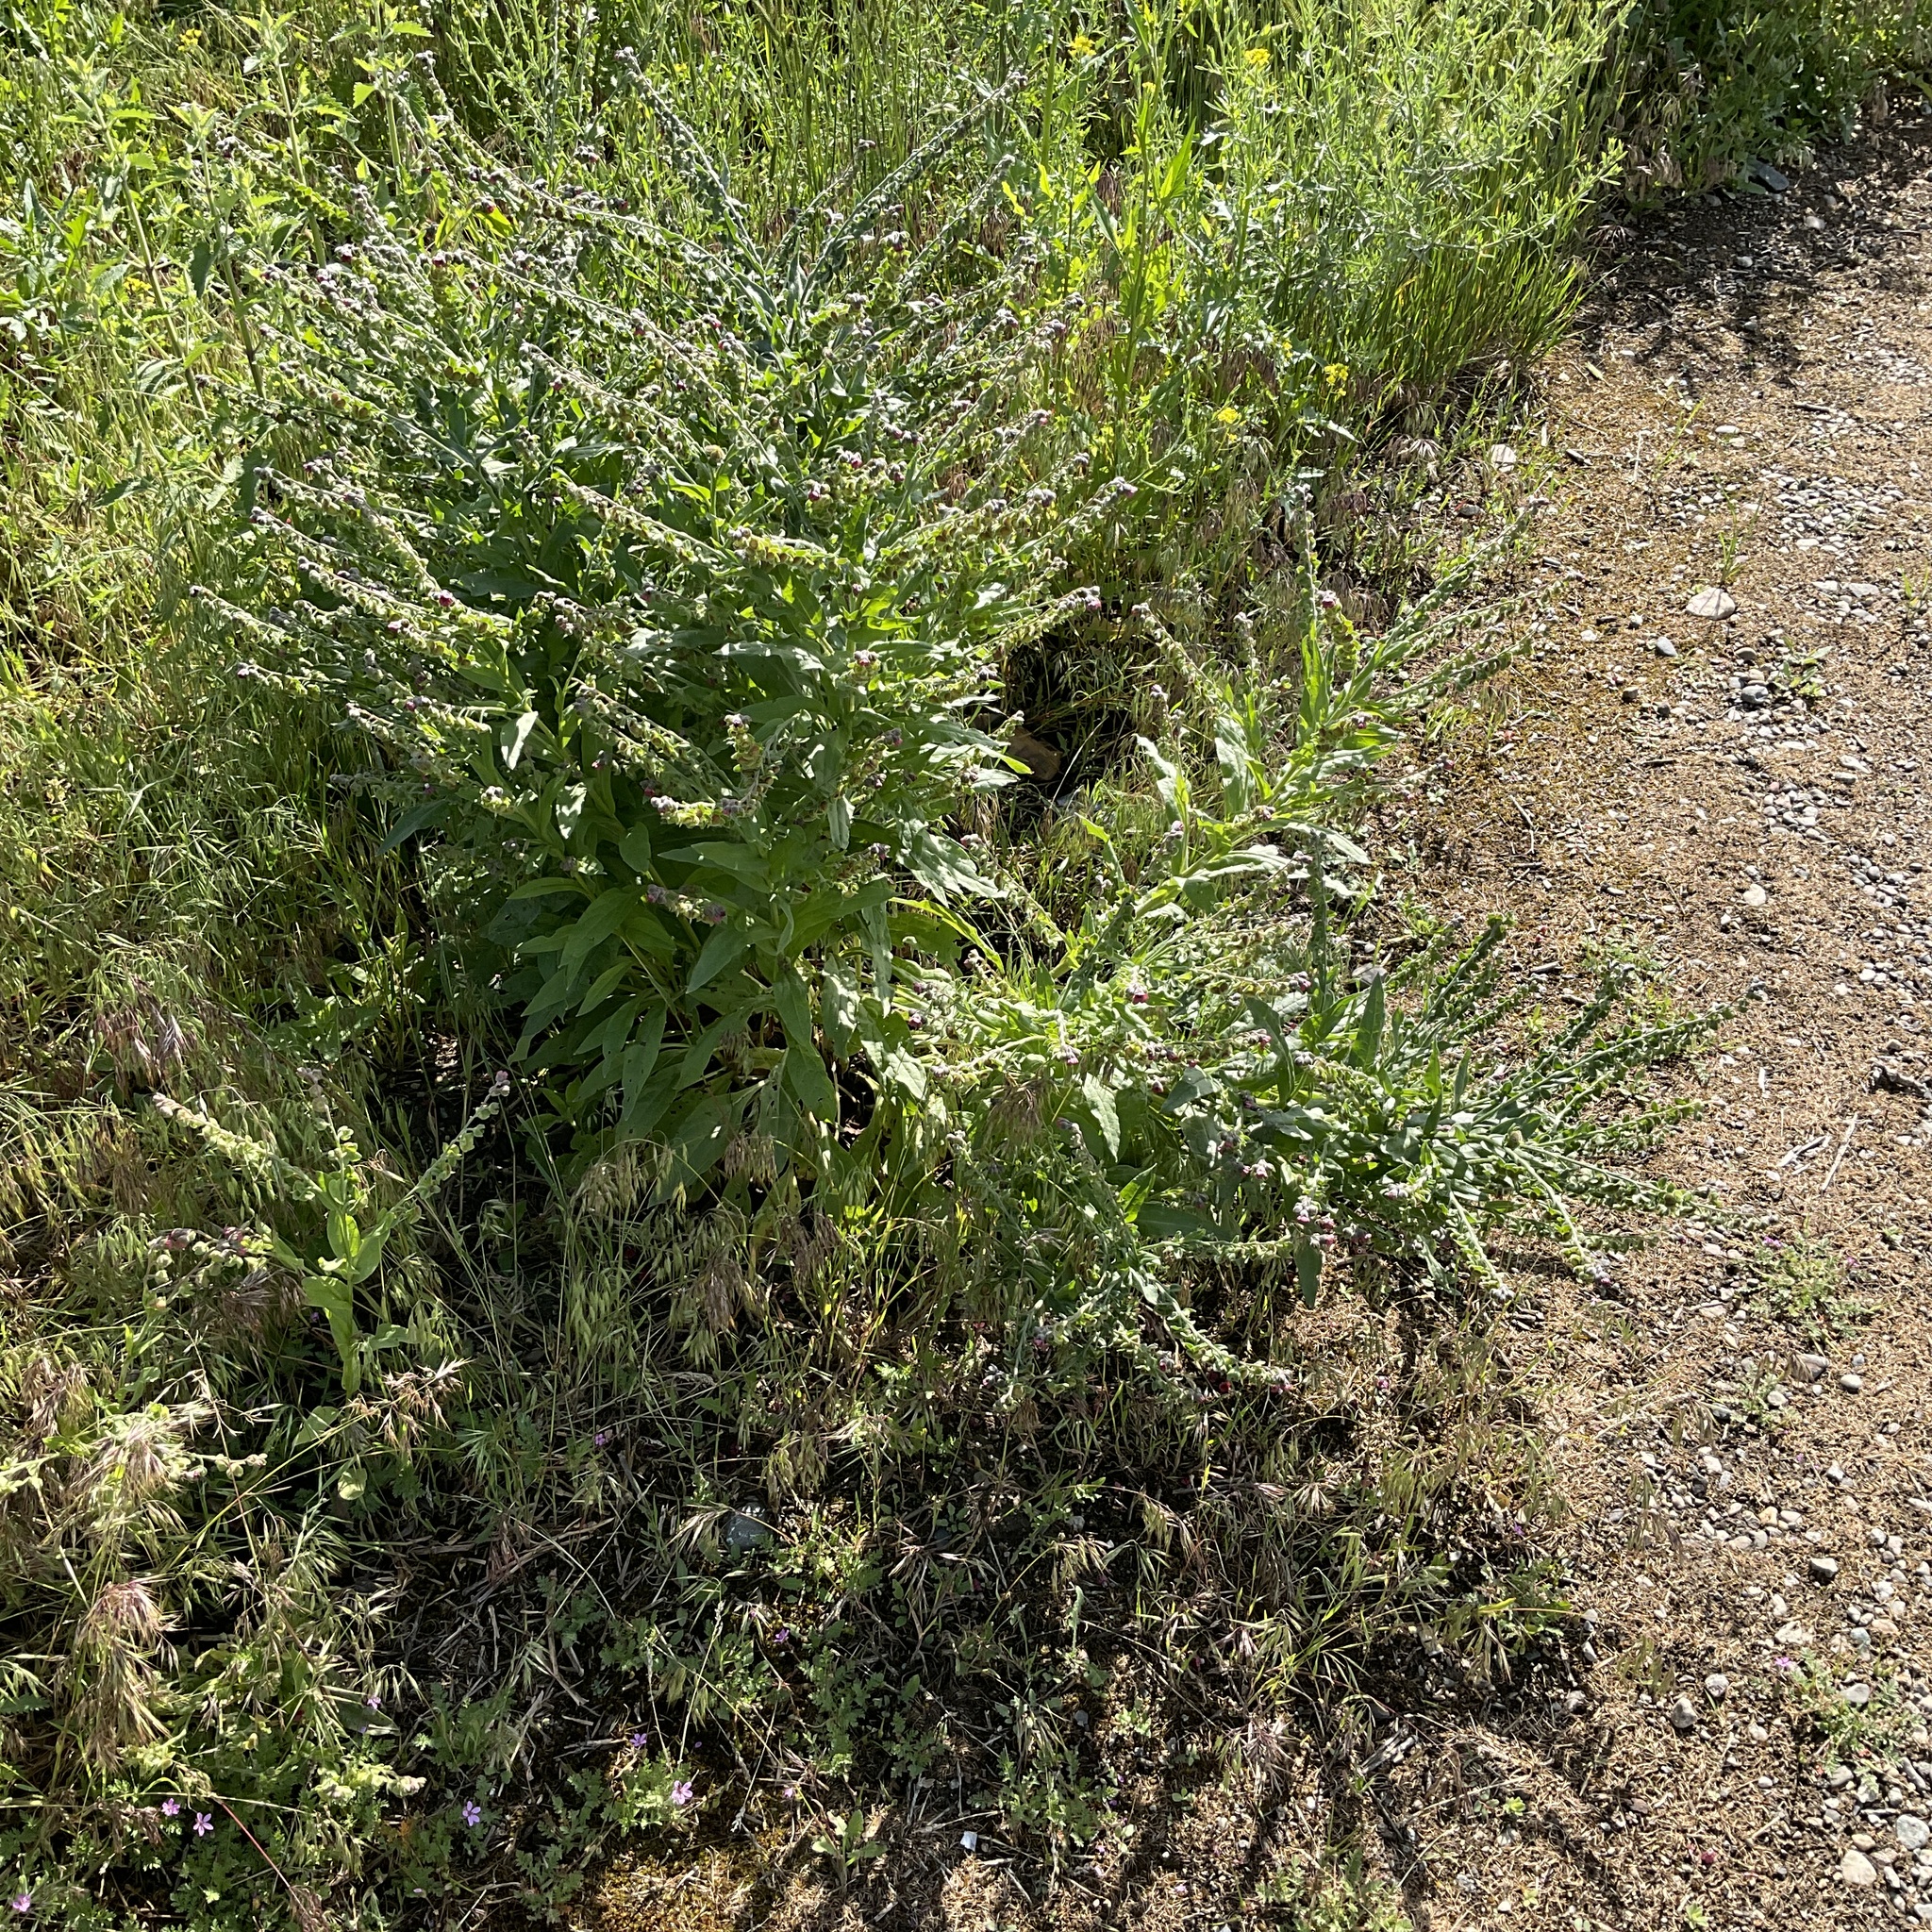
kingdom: Plantae
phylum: Tracheophyta
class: Magnoliopsida
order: Boraginales
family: Boraginaceae
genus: Cynoglossum
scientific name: Cynoglossum officinale
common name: Hound's-tongue
